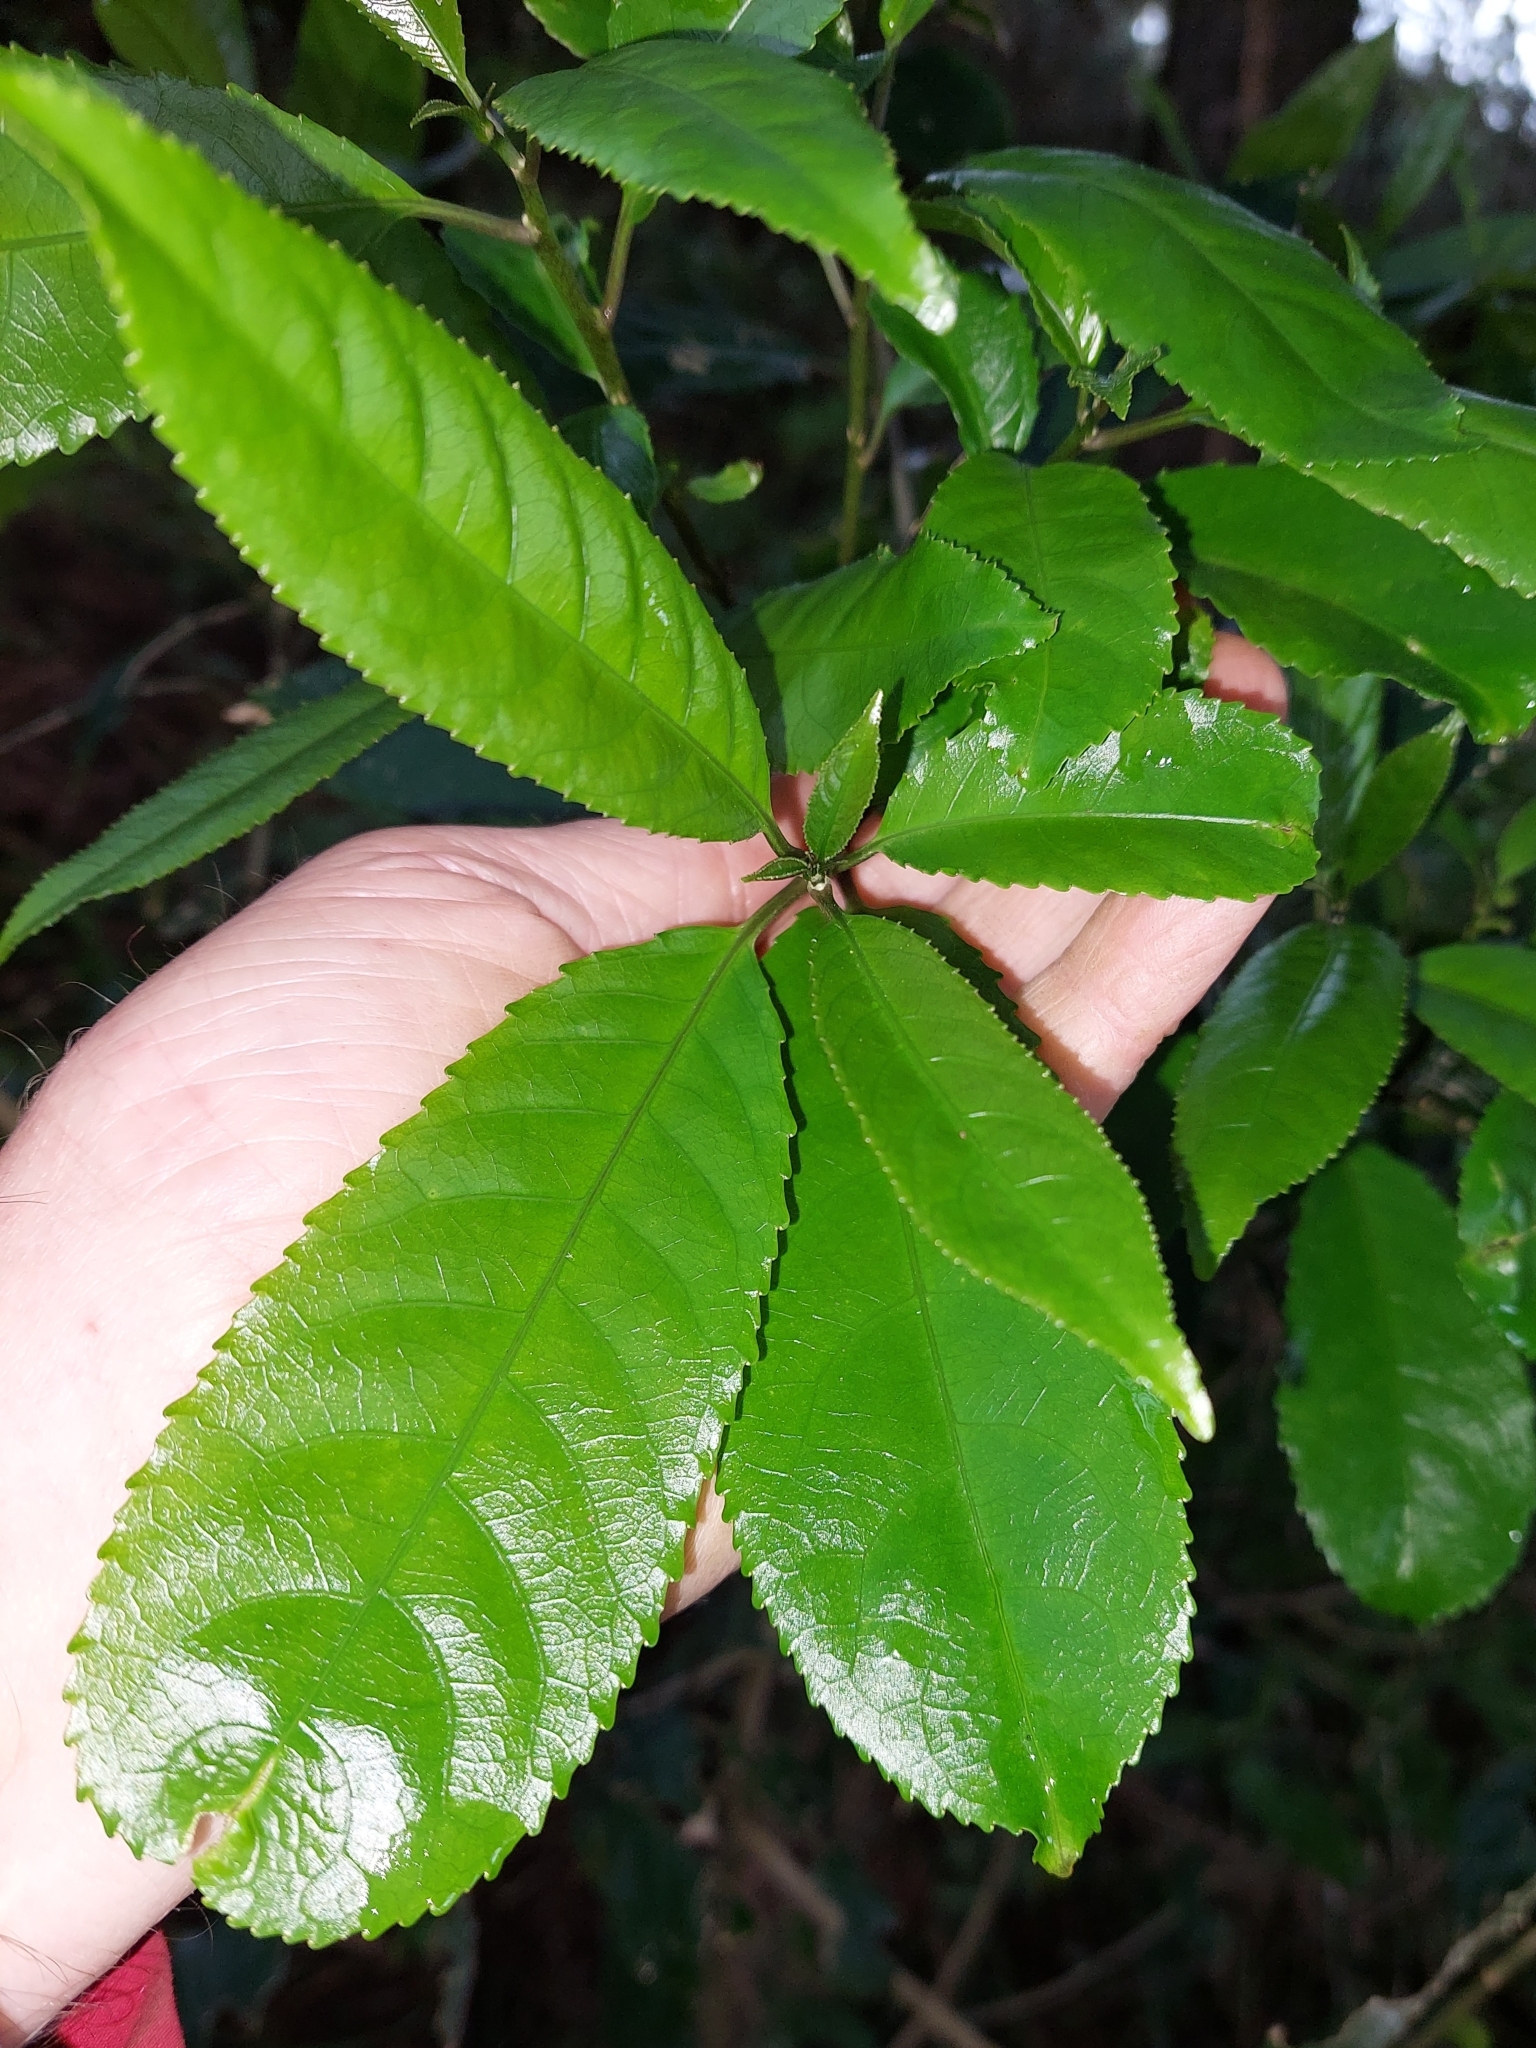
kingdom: Plantae
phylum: Tracheophyta
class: Magnoliopsida
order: Malpighiales
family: Violaceae
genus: Melicytus
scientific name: Melicytus ramiflorus
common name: Mahoe
